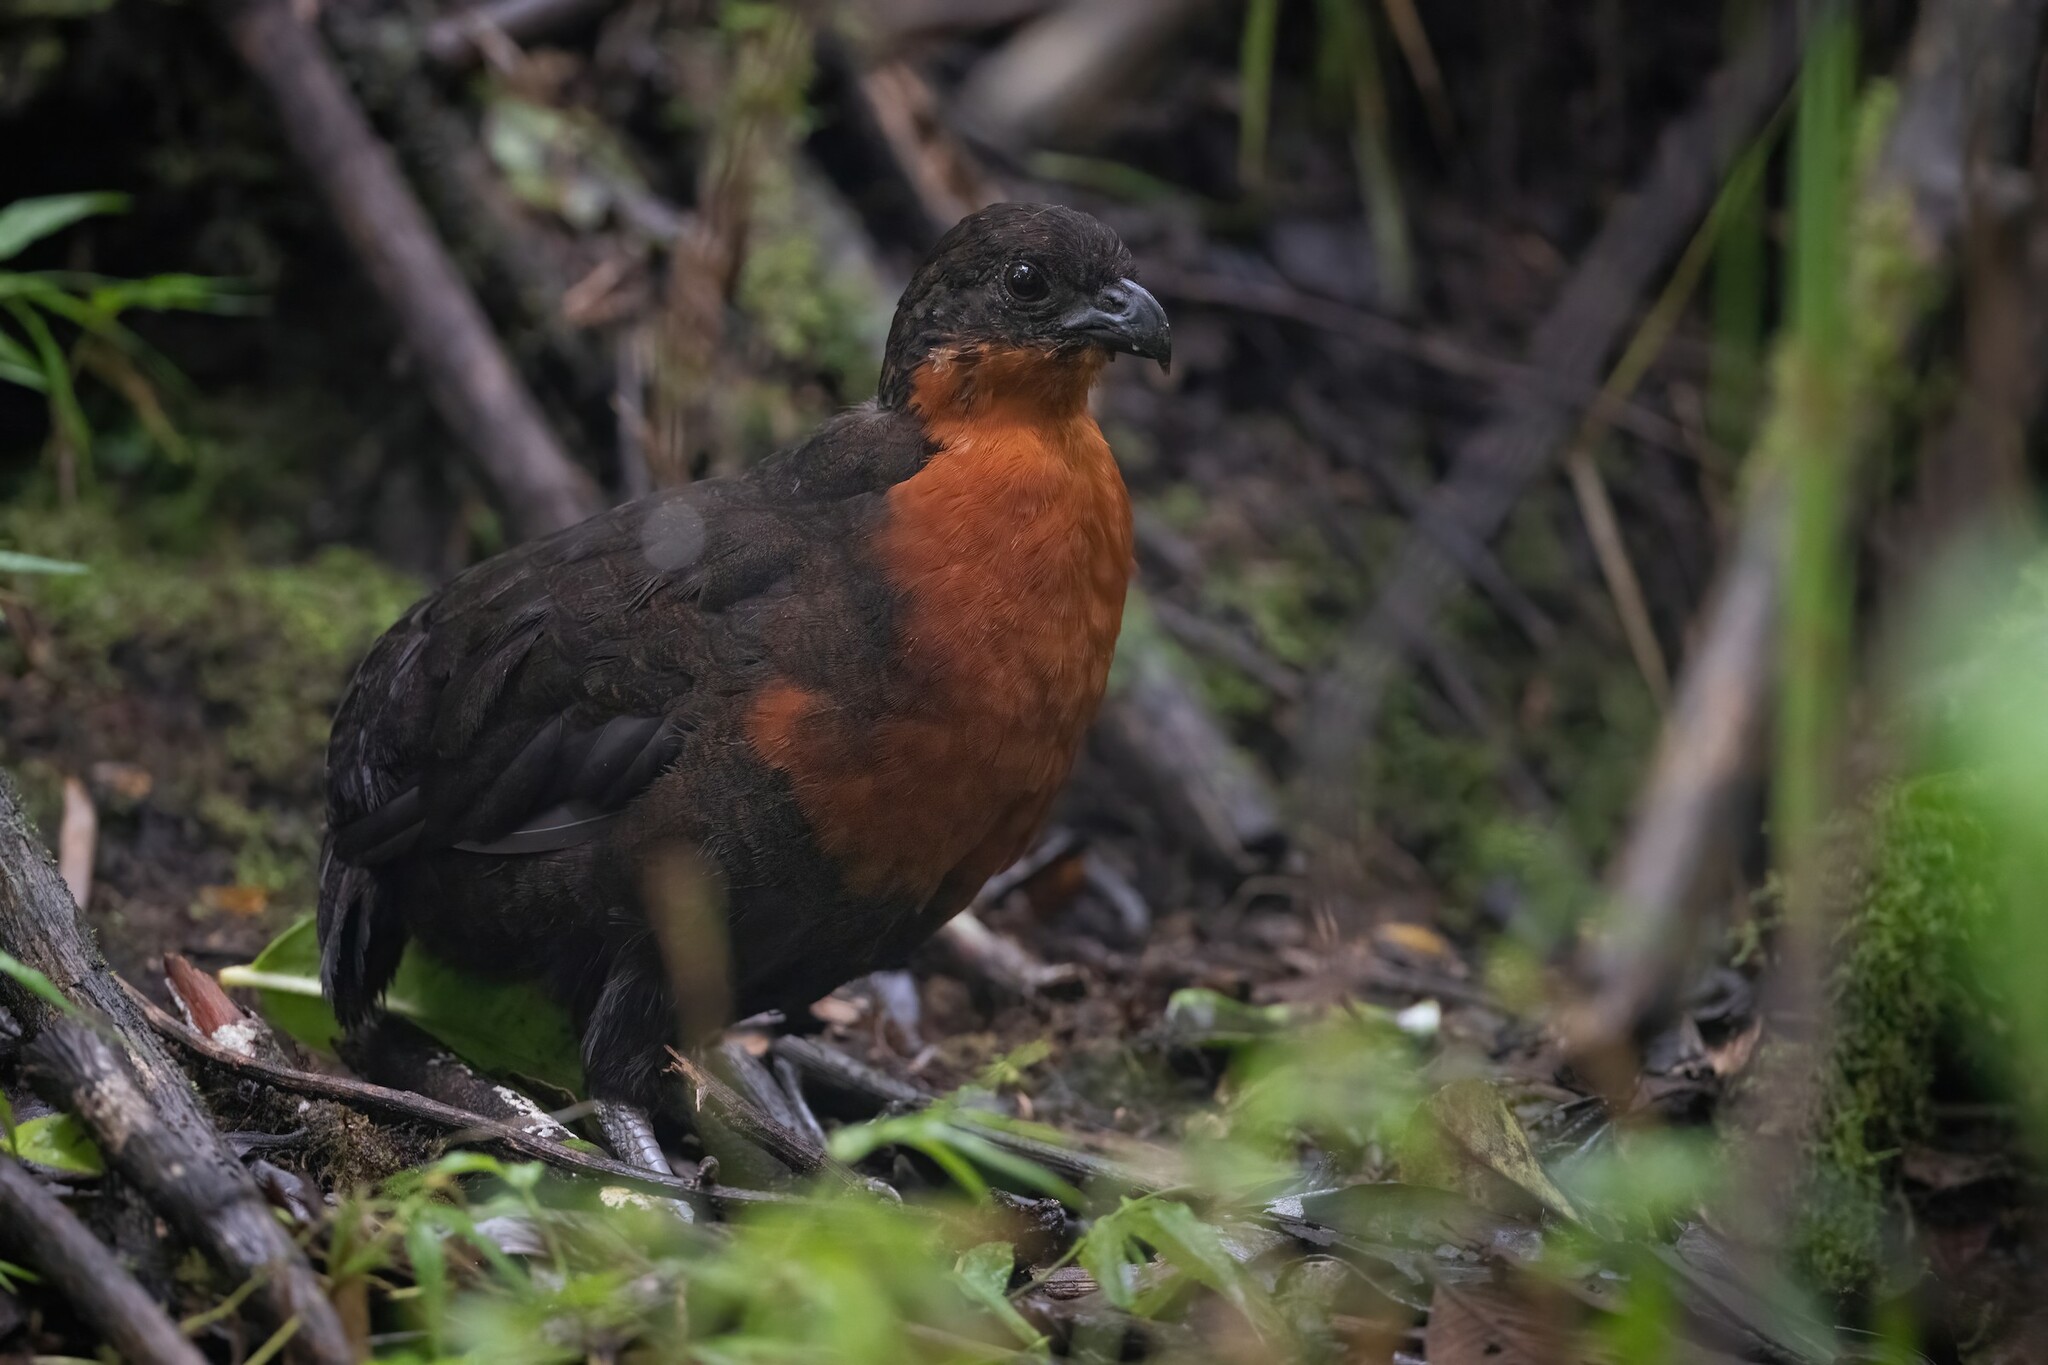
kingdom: Animalia
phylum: Chordata
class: Aves
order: Galliformes
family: Odontophoridae
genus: Odontophorus
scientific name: Odontophorus melanonotus
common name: Dark-backed wood-quail
